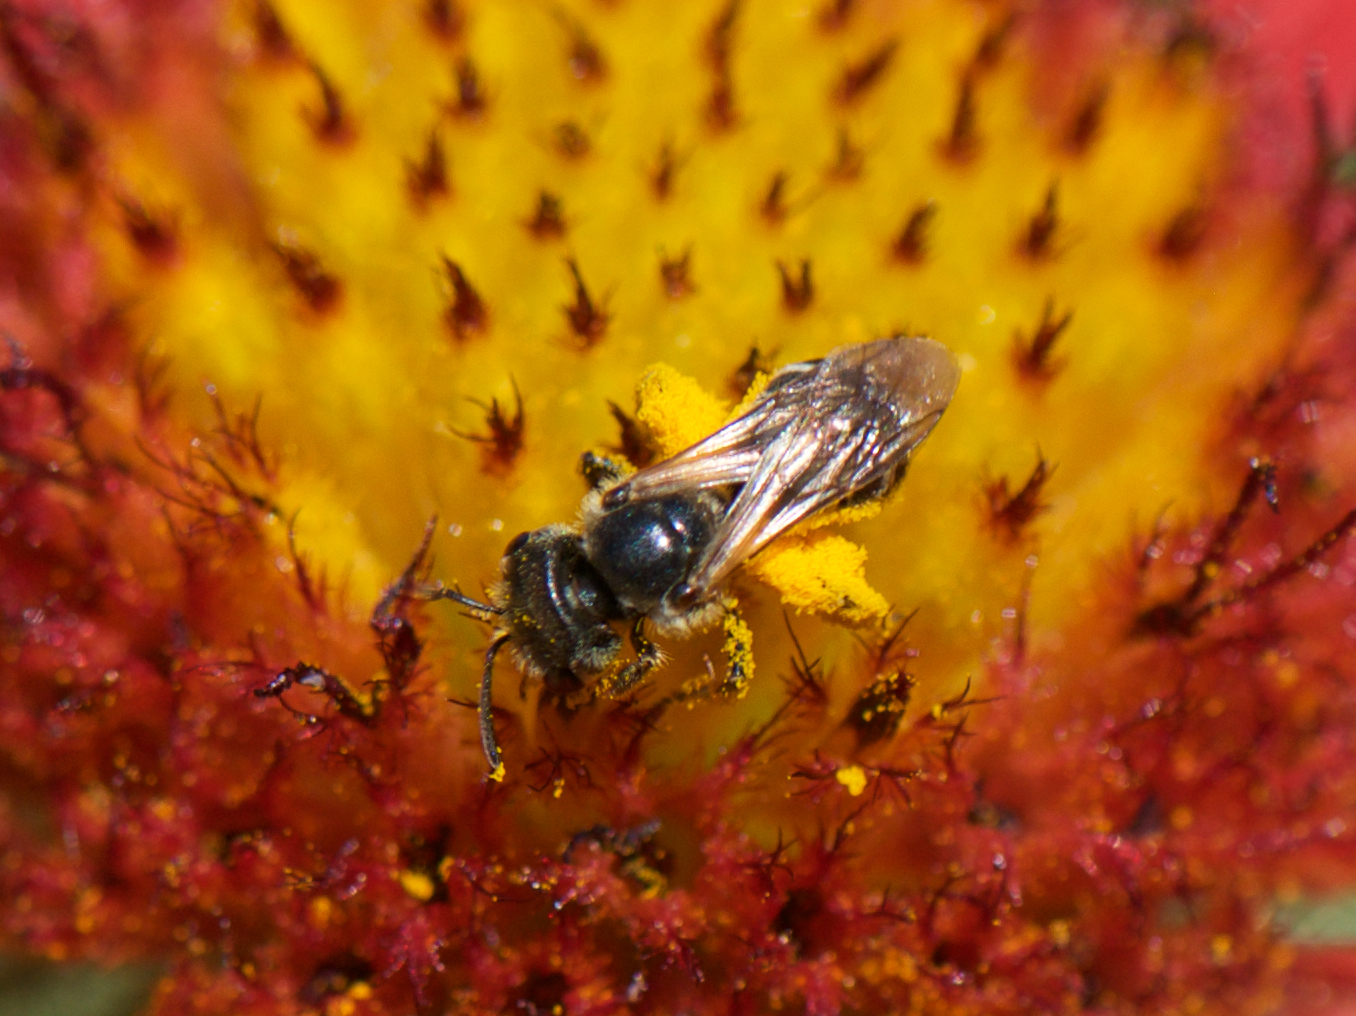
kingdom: Animalia
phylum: Arthropoda
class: Insecta
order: Hymenoptera
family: Halictidae
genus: Halictus
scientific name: Halictus ligatus
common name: Ligated furrow bee
